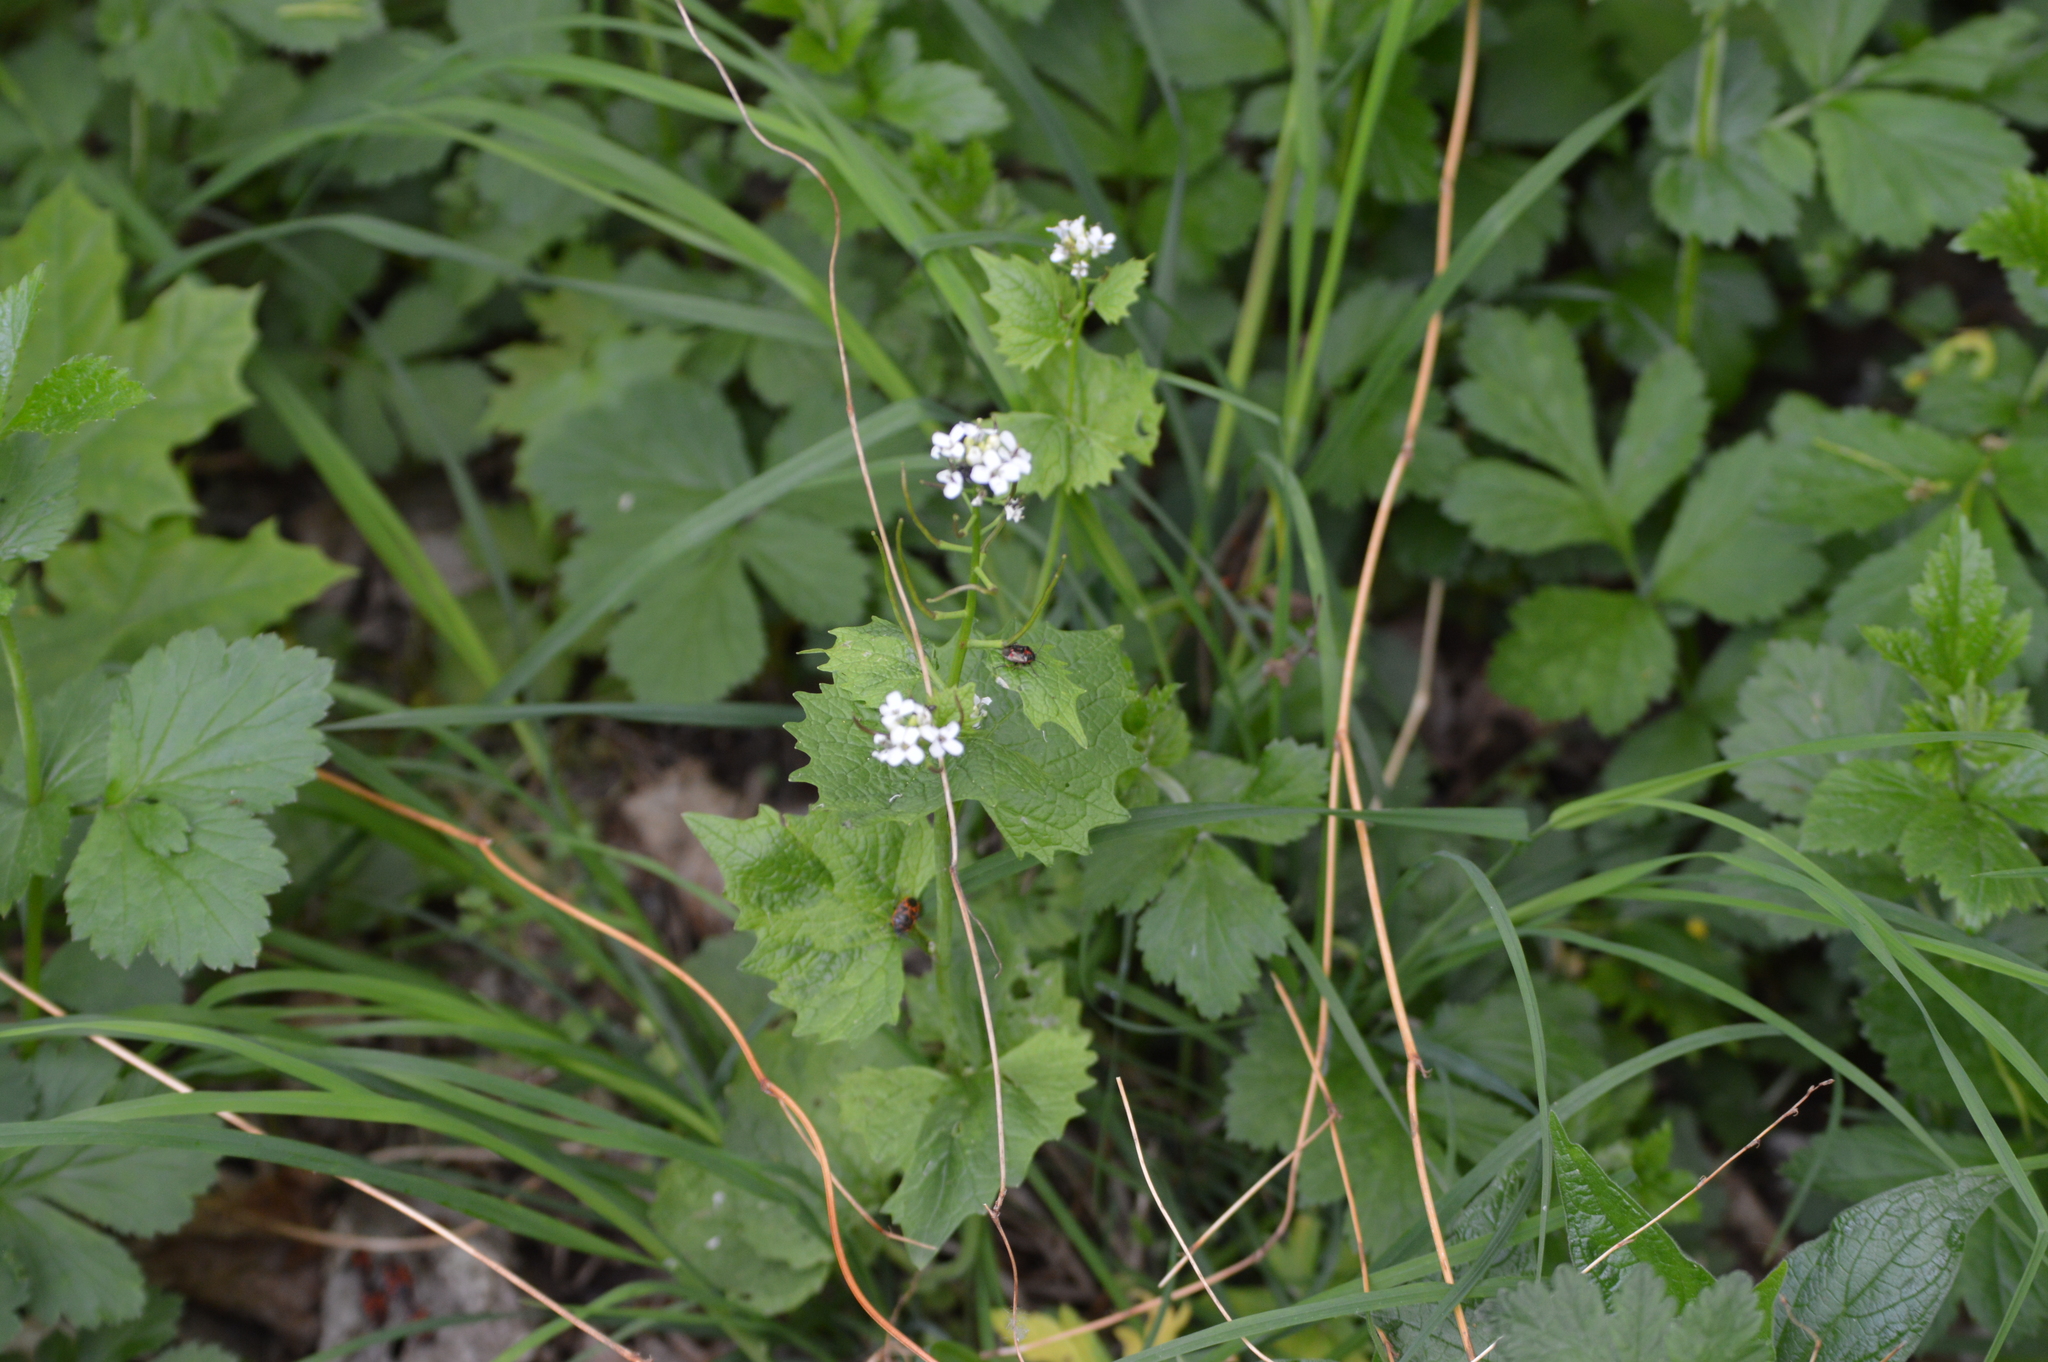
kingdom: Animalia
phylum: Arthropoda
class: Insecta
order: Hemiptera
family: Pentatomidae
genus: Eurydema
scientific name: Eurydema
